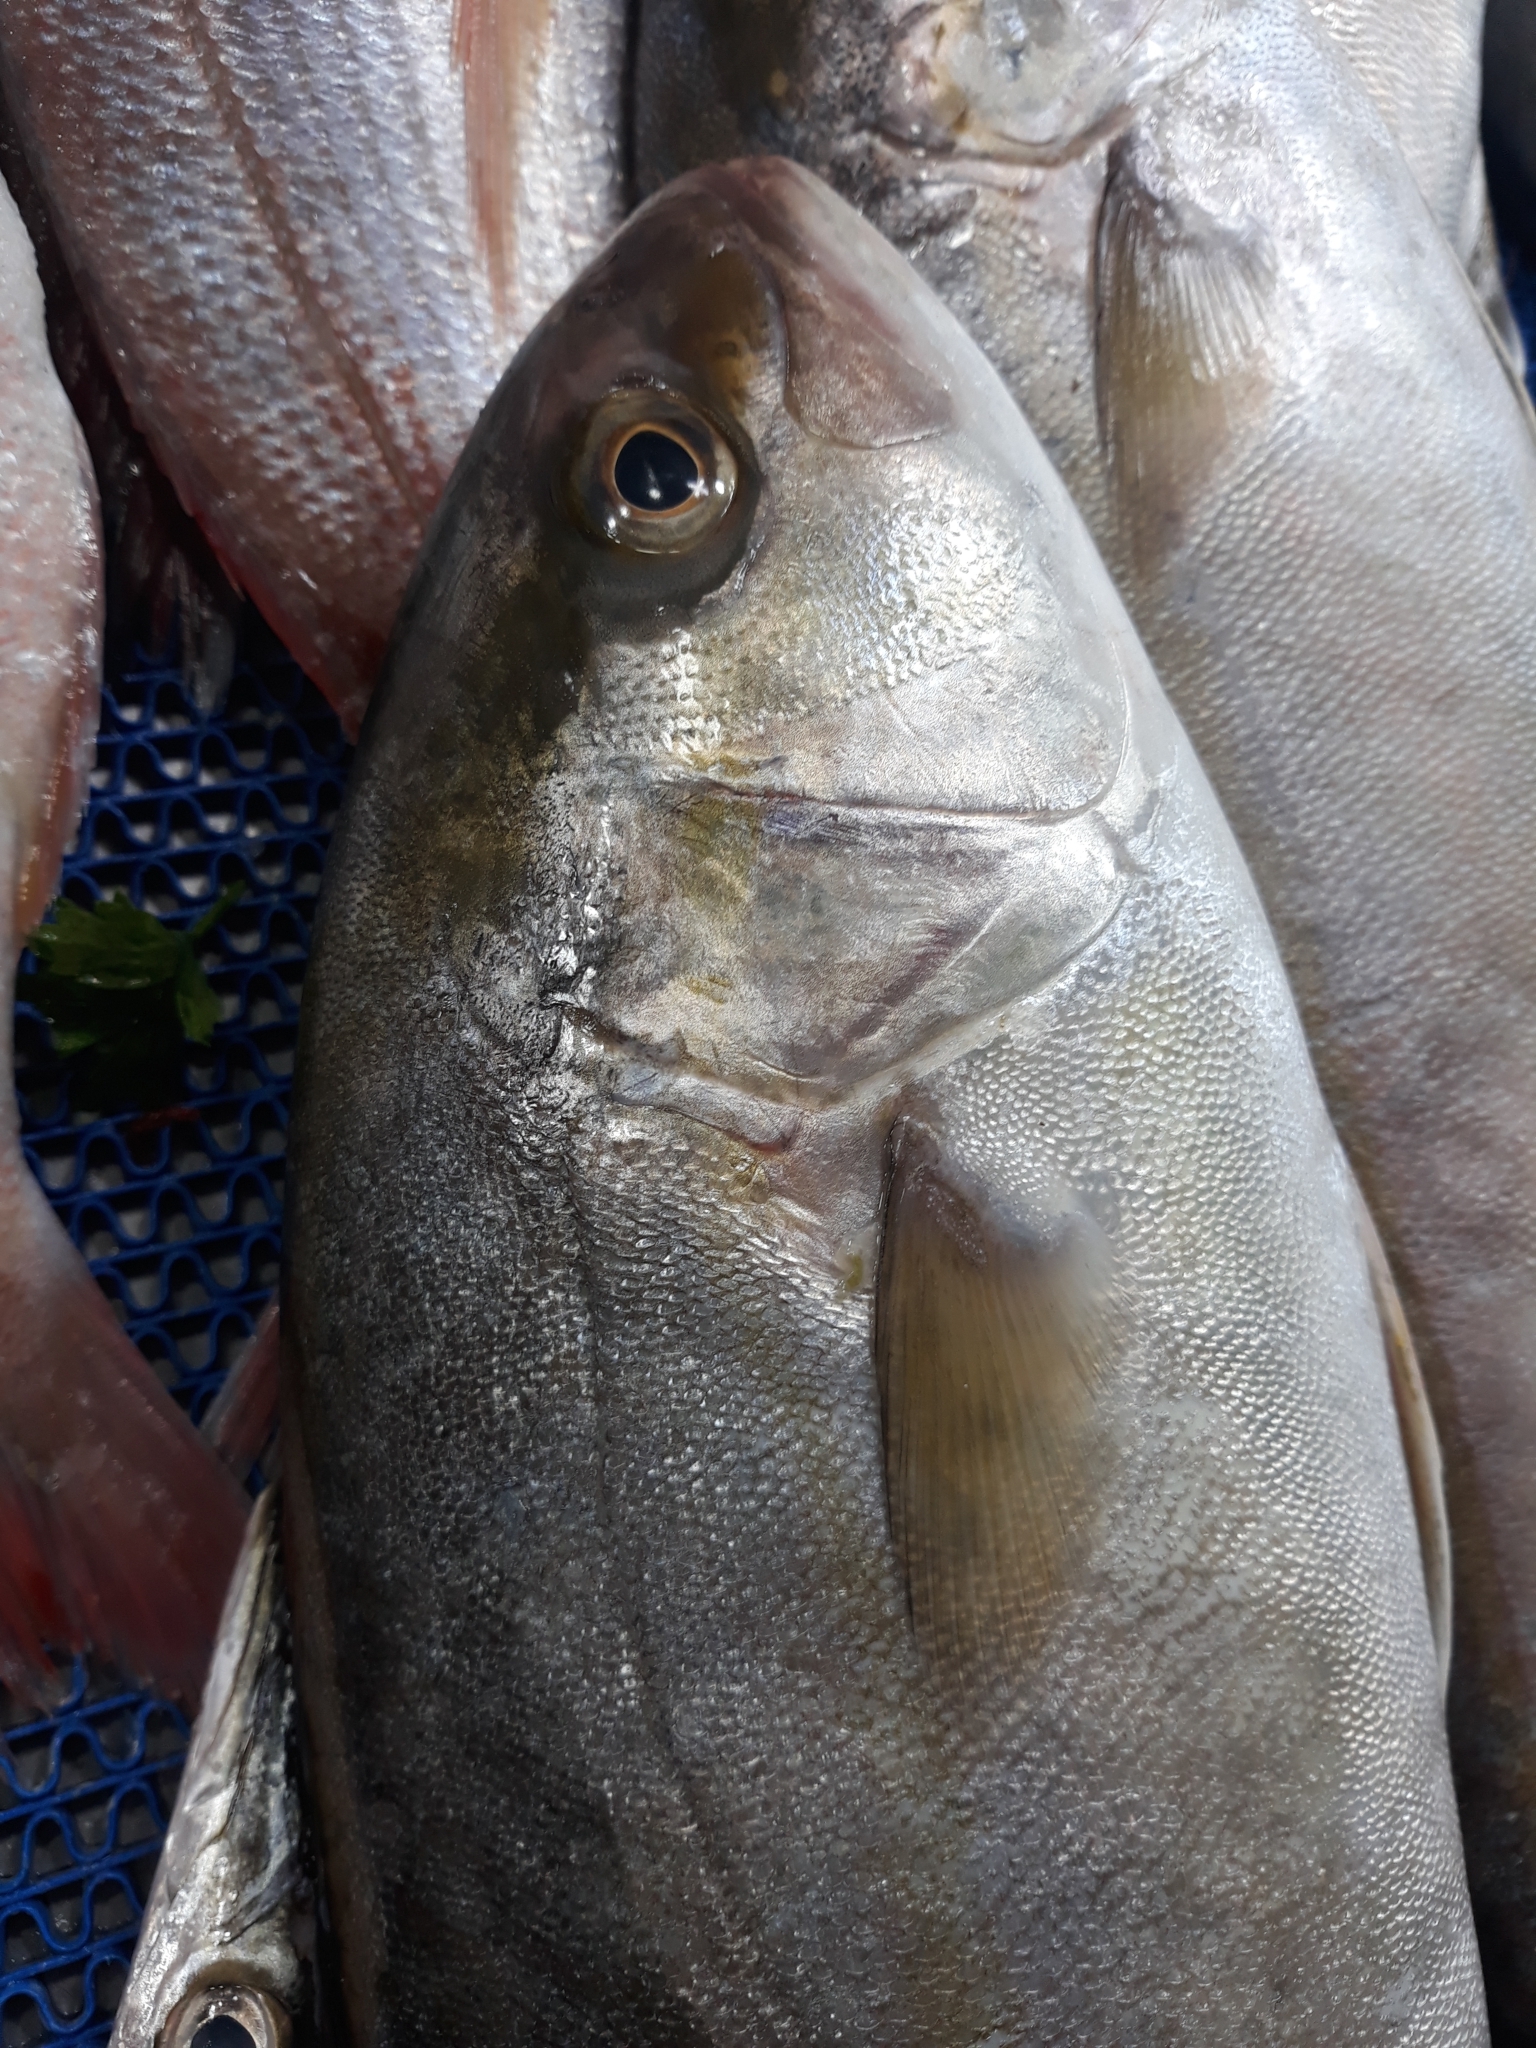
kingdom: Animalia
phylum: Chordata
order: Perciformes
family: Carangidae
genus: Seriola
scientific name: Seriola dumerili
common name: Greater amberjack
